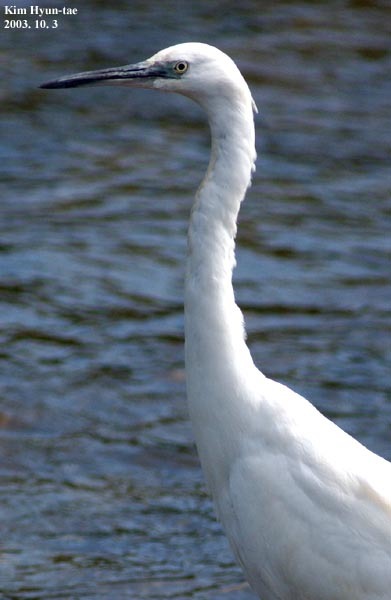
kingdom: Animalia
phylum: Chordata
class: Aves
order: Pelecaniformes
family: Ardeidae
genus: Egretta
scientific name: Egretta garzetta
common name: Little egret
